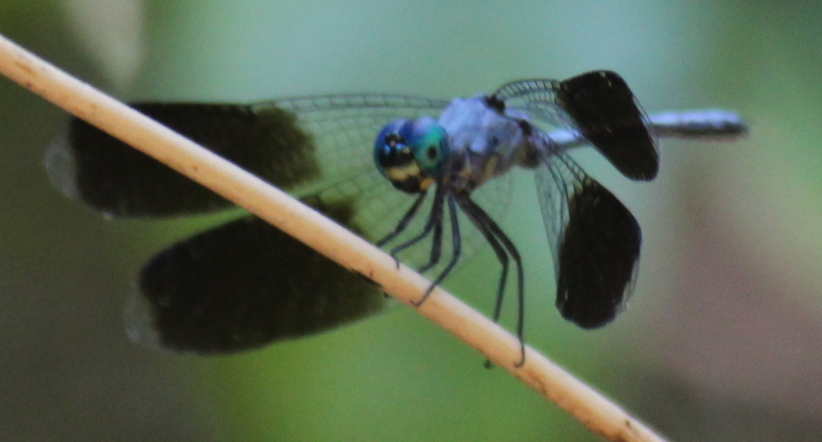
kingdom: Animalia
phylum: Arthropoda
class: Insecta
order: Odonata
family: Libellulidae
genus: Tetrathemis
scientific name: Tetrathemis polleni
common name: Black-splashed elf
